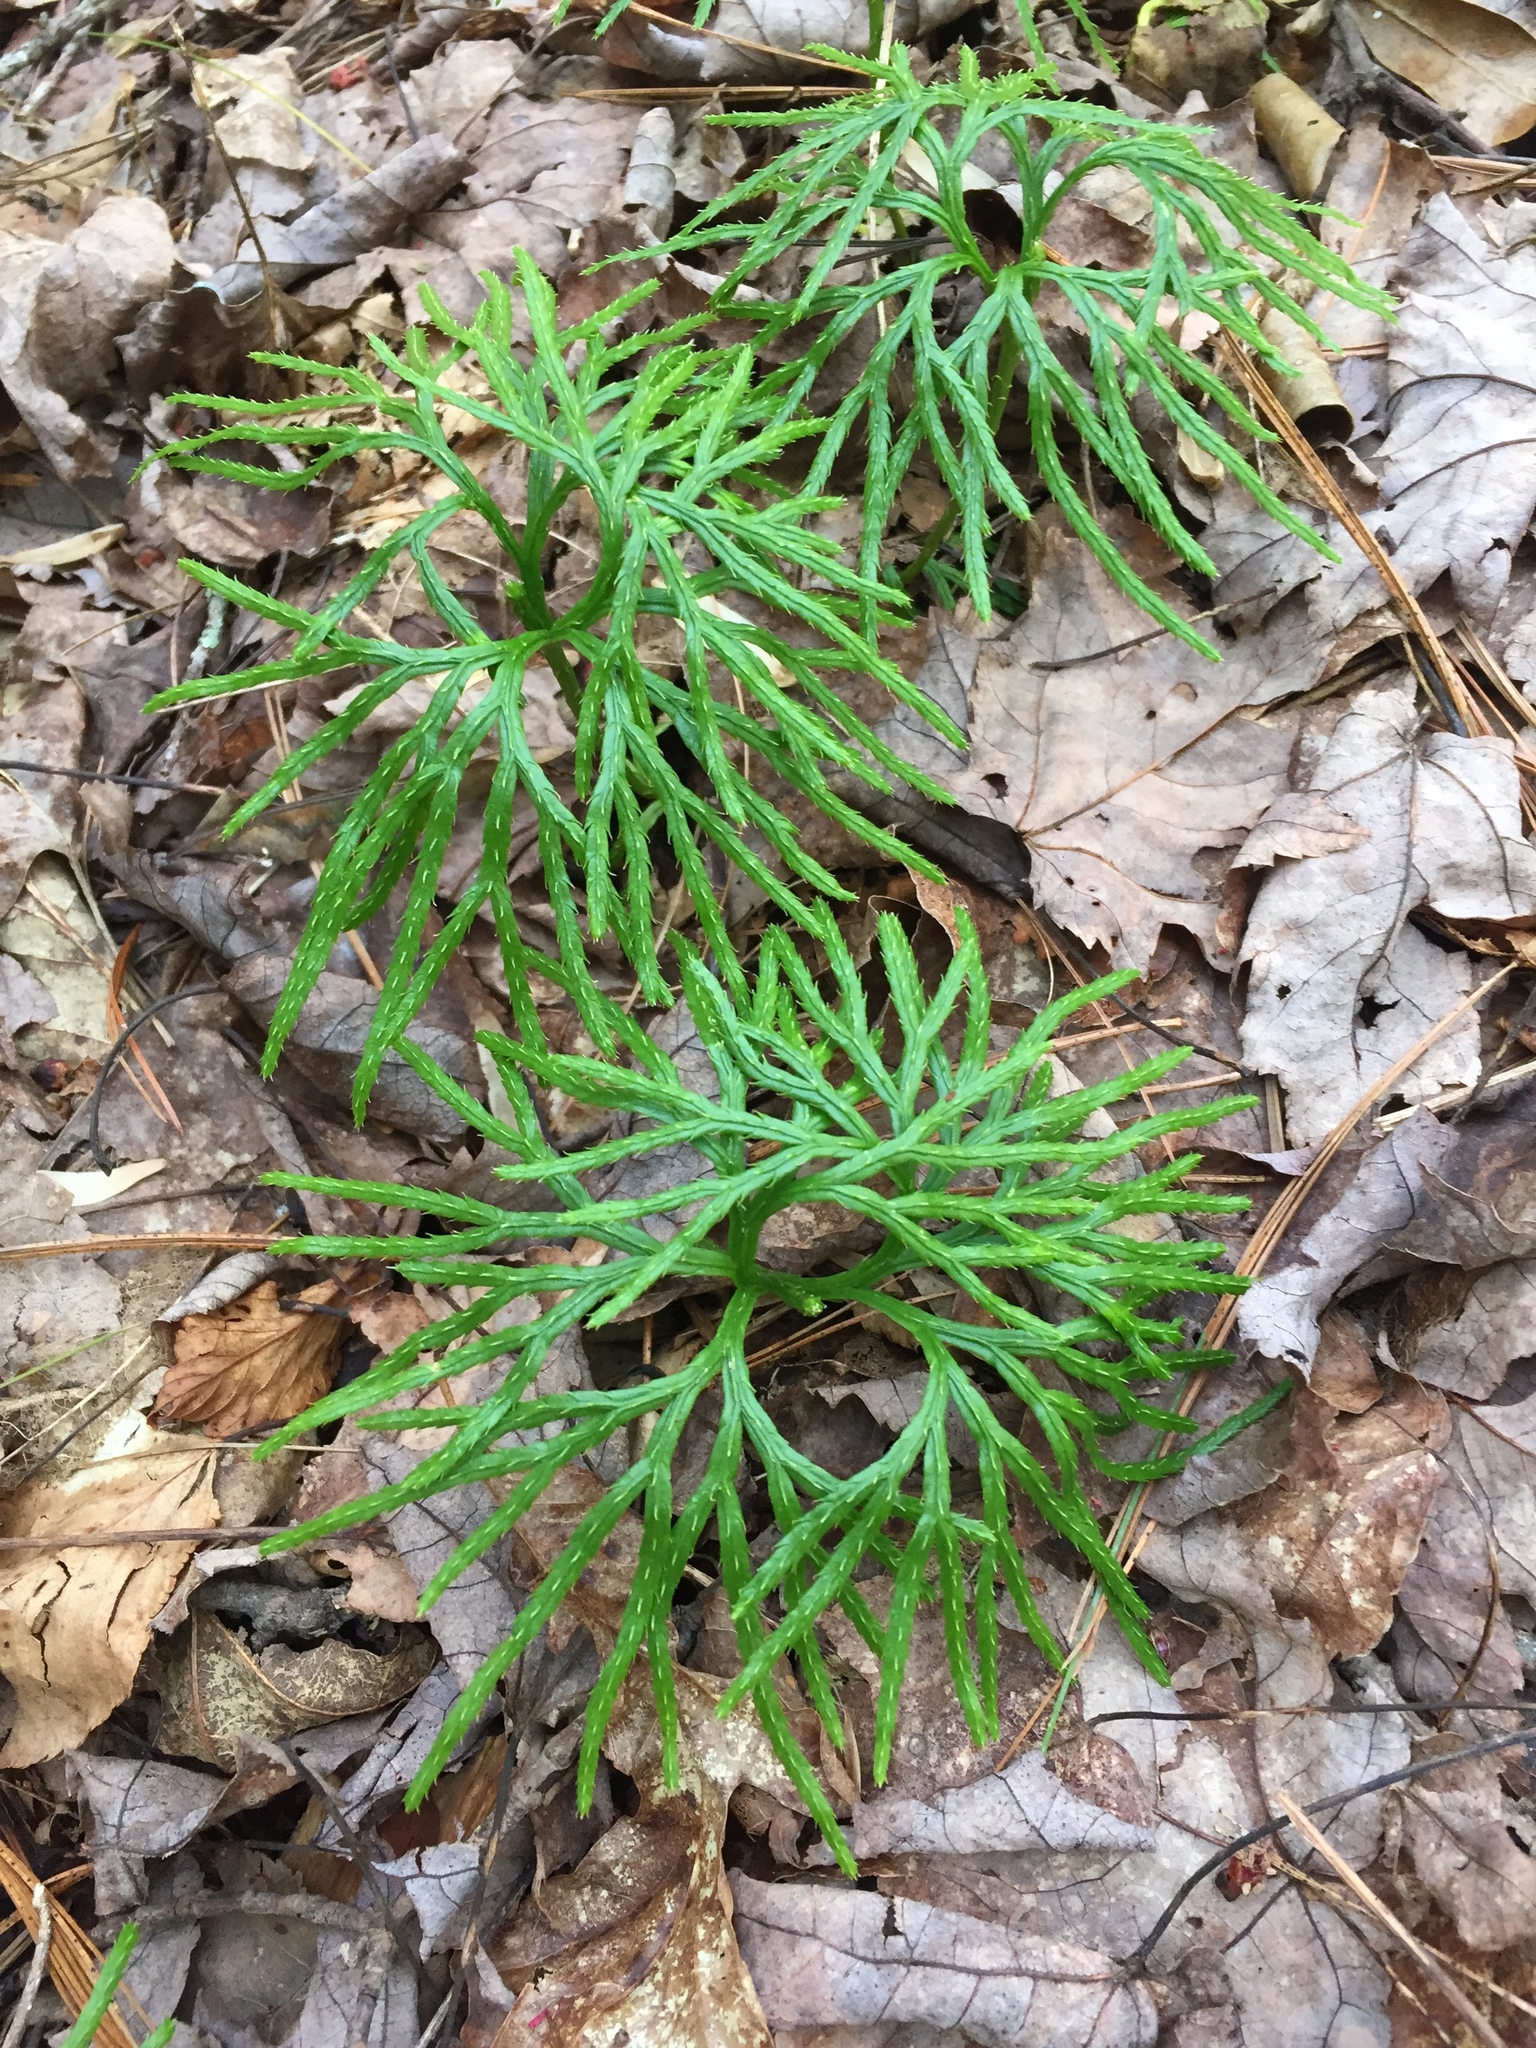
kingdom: Plantae
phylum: Tracheophyta
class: Lycopodiopsida
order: Lycopodiales
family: Lycopodiaceae
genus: Diphasiastrum
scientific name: Diphasiastrum digitatum
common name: Southern running-pine
